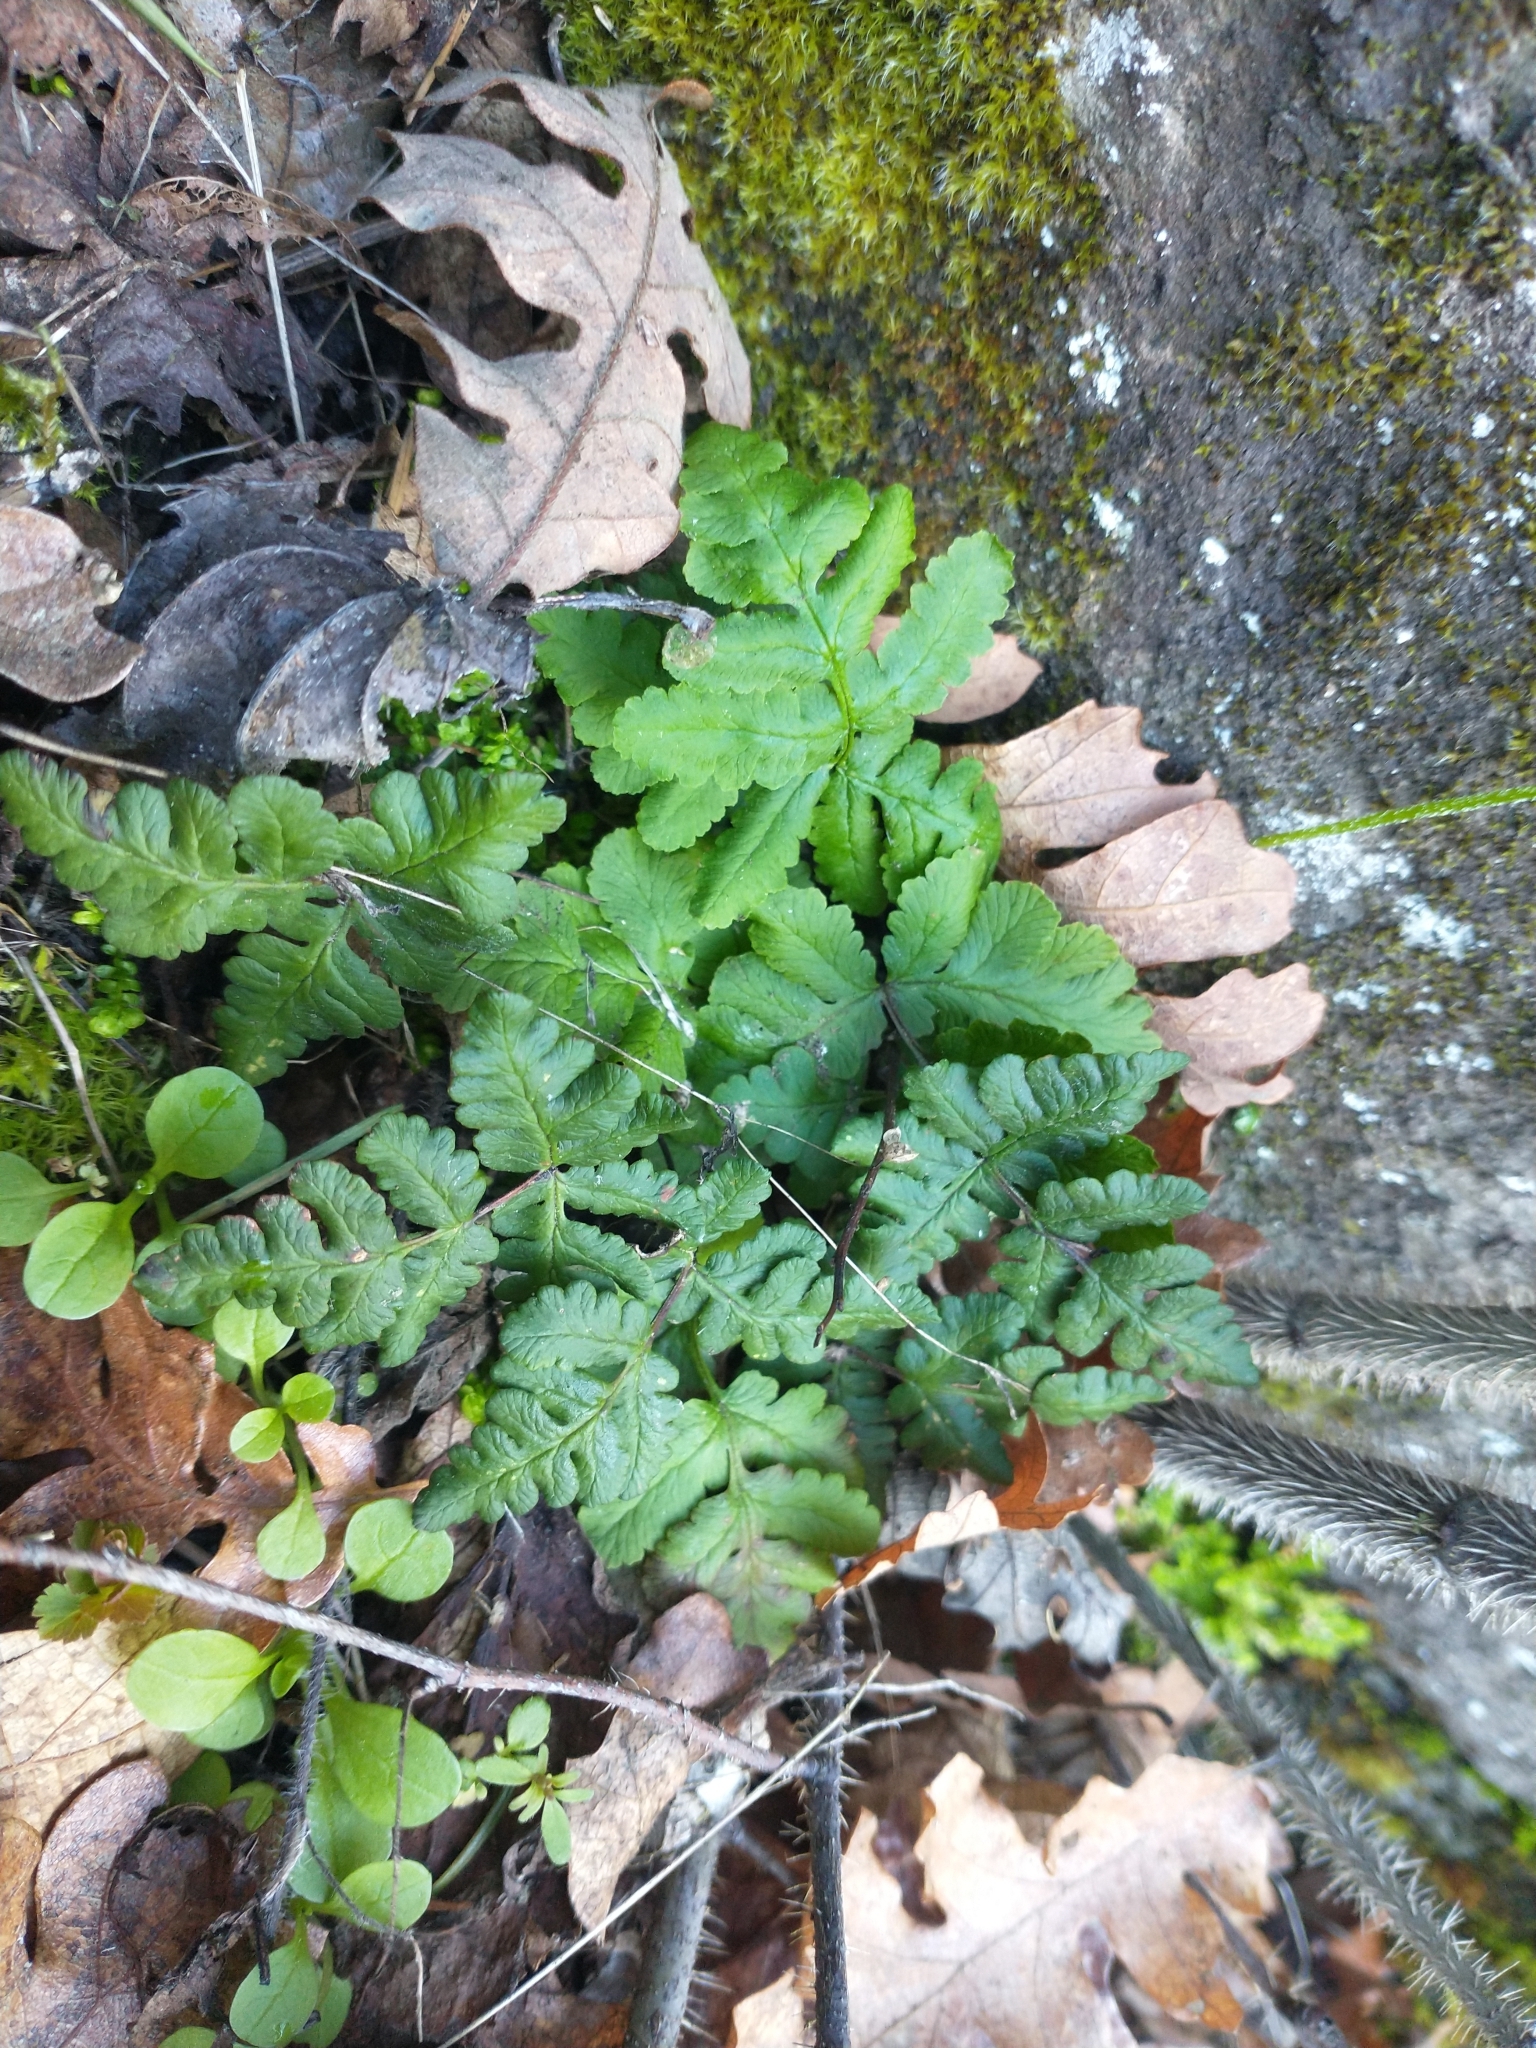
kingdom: Plantae
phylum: Tracheophyta
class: Polypodiopsida
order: Polypodiales
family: Pteridaceae
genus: Pentagramma
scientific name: Pentagramma triangularis
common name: Gold fern
